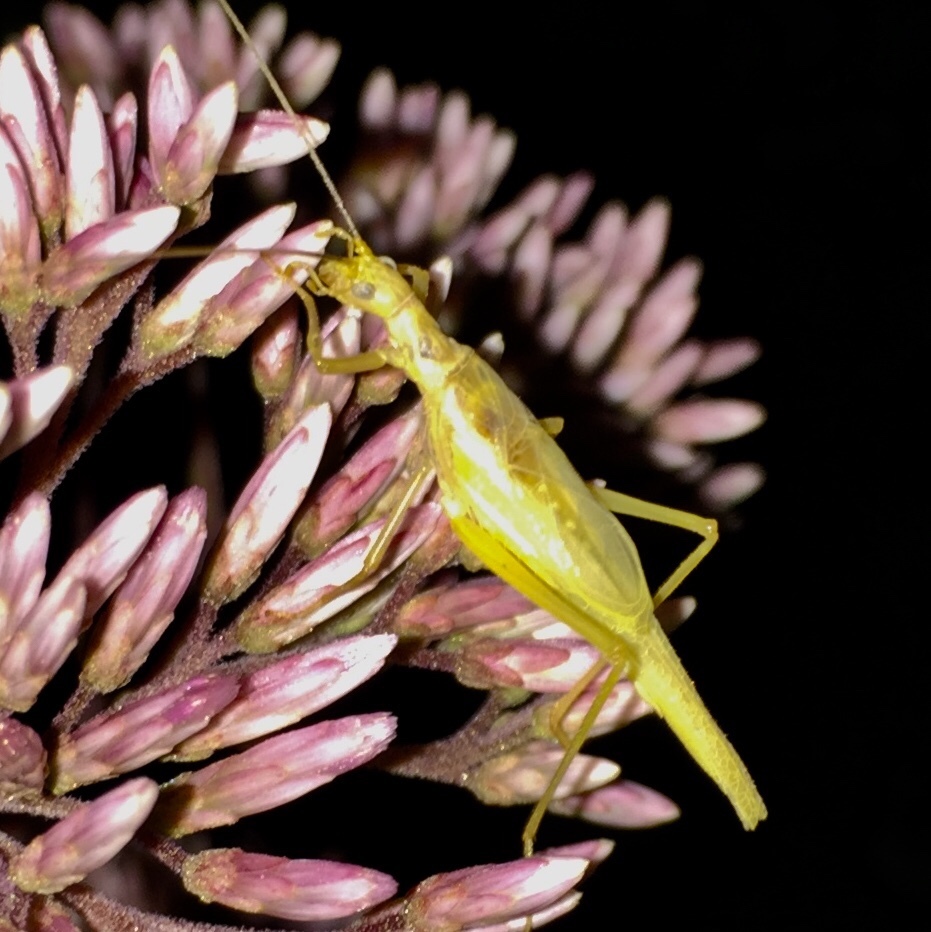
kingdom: Animalia
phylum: Arthropoda
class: Insecta
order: Orthoptera
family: Gryllidae
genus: Neoxabea
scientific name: Neoxabea bipunctata
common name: Two-spotted tree cricket
